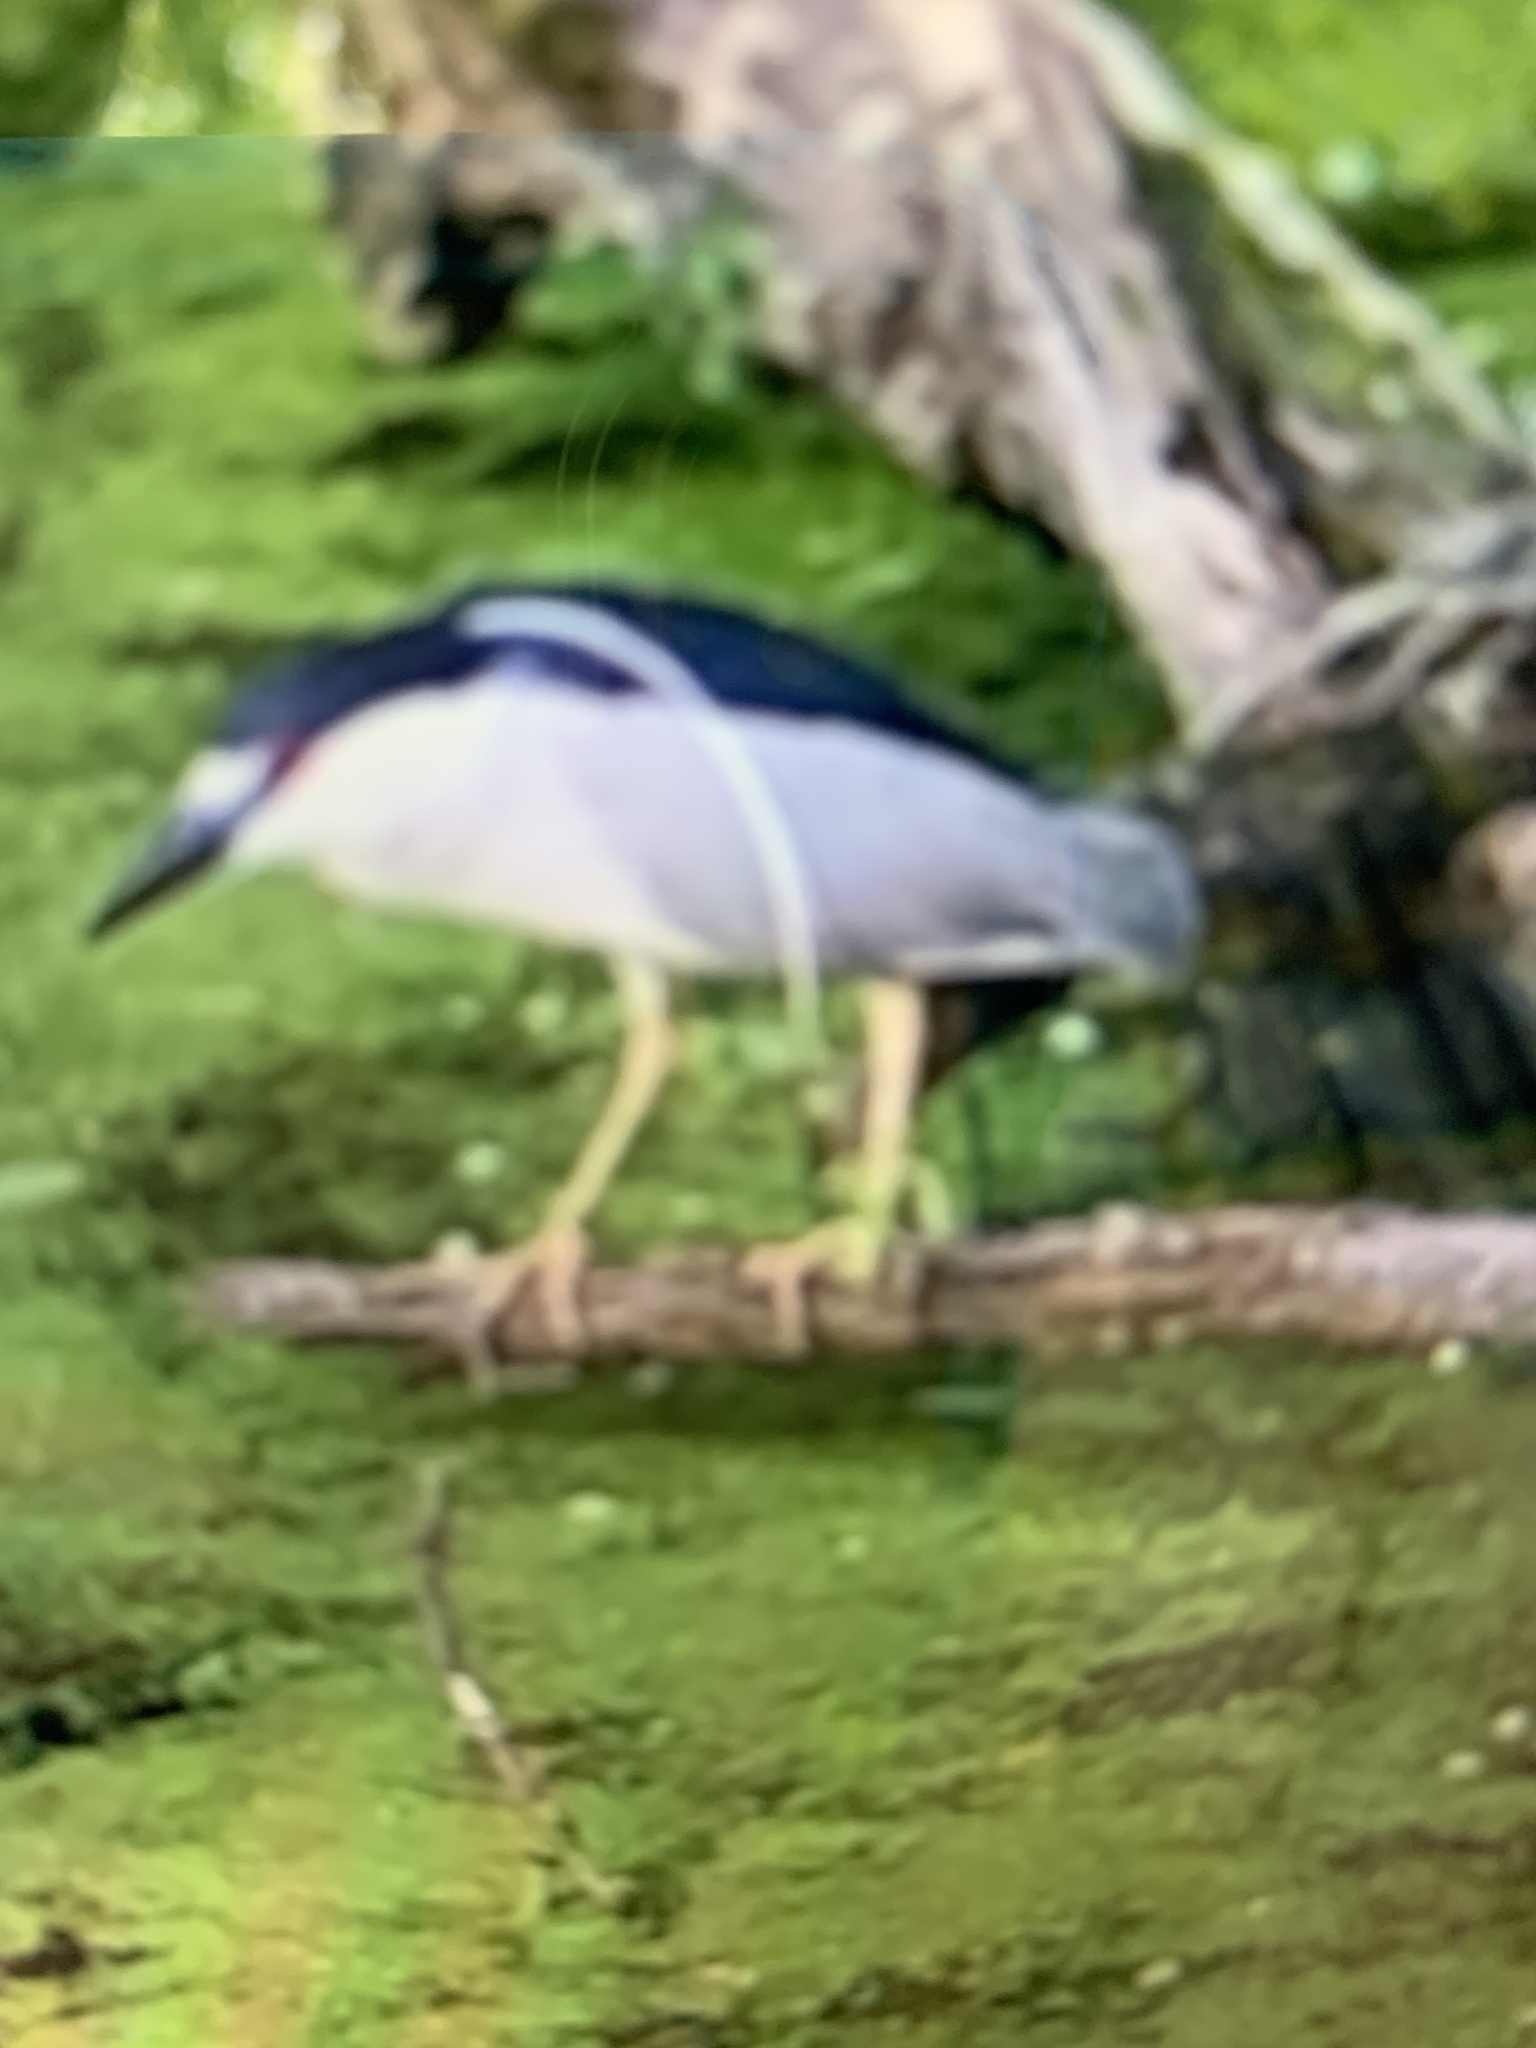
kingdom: Animalia
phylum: Chordata
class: Aves
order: Pelecaniformes
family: Ardeidae
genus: Nycticorax
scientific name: Nycticorax nycticorax
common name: Black-crowned night heron
